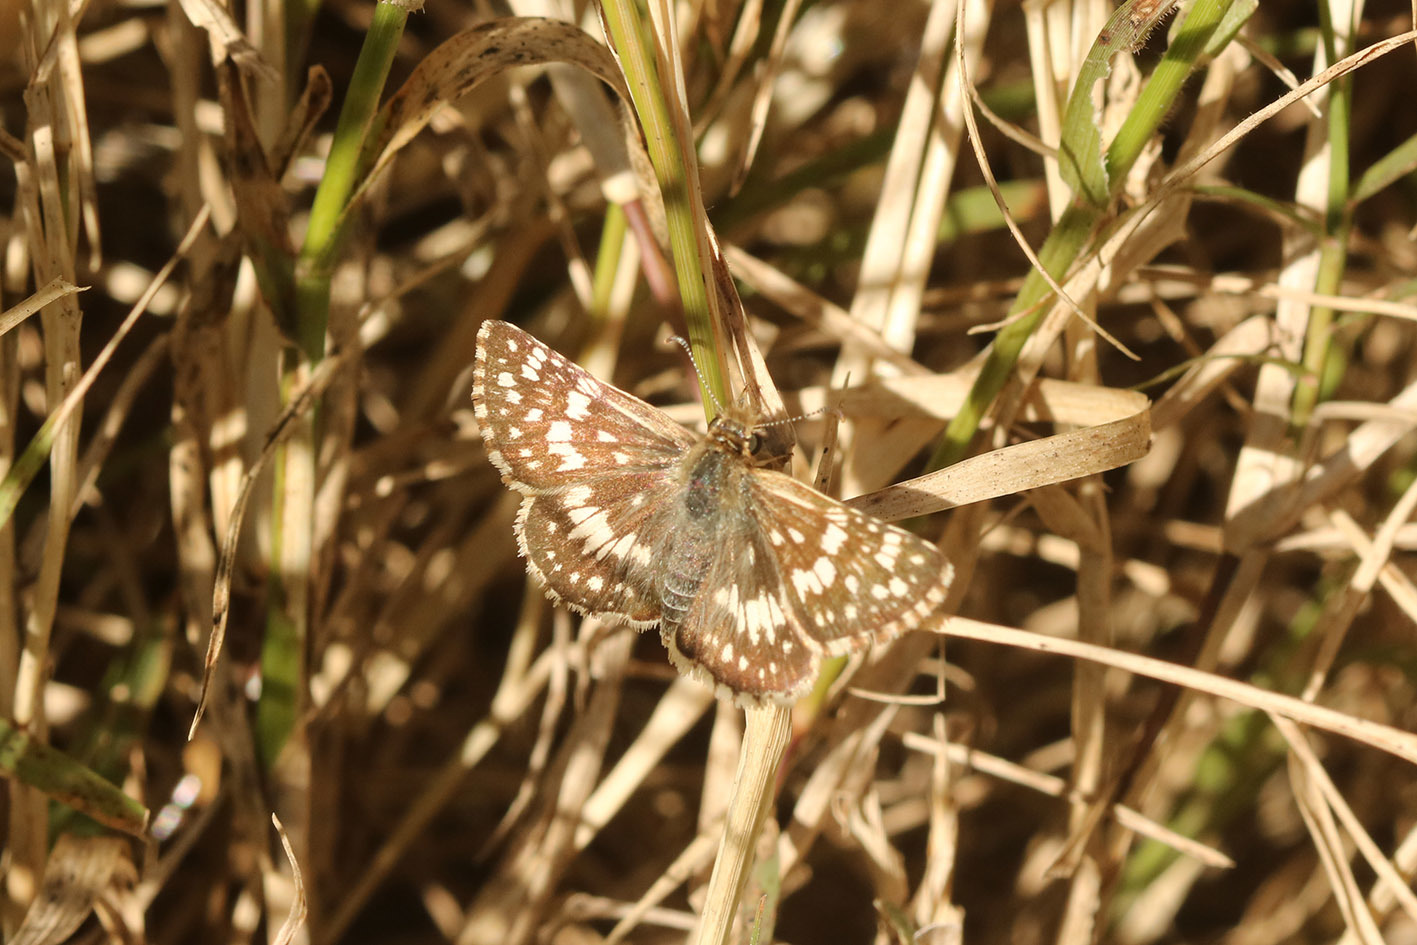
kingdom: Animalia
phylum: Arthropoda
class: Insecta
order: Lepidoptera
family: Hesperiidae
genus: Burnsius
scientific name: Burnsius orcynoides
